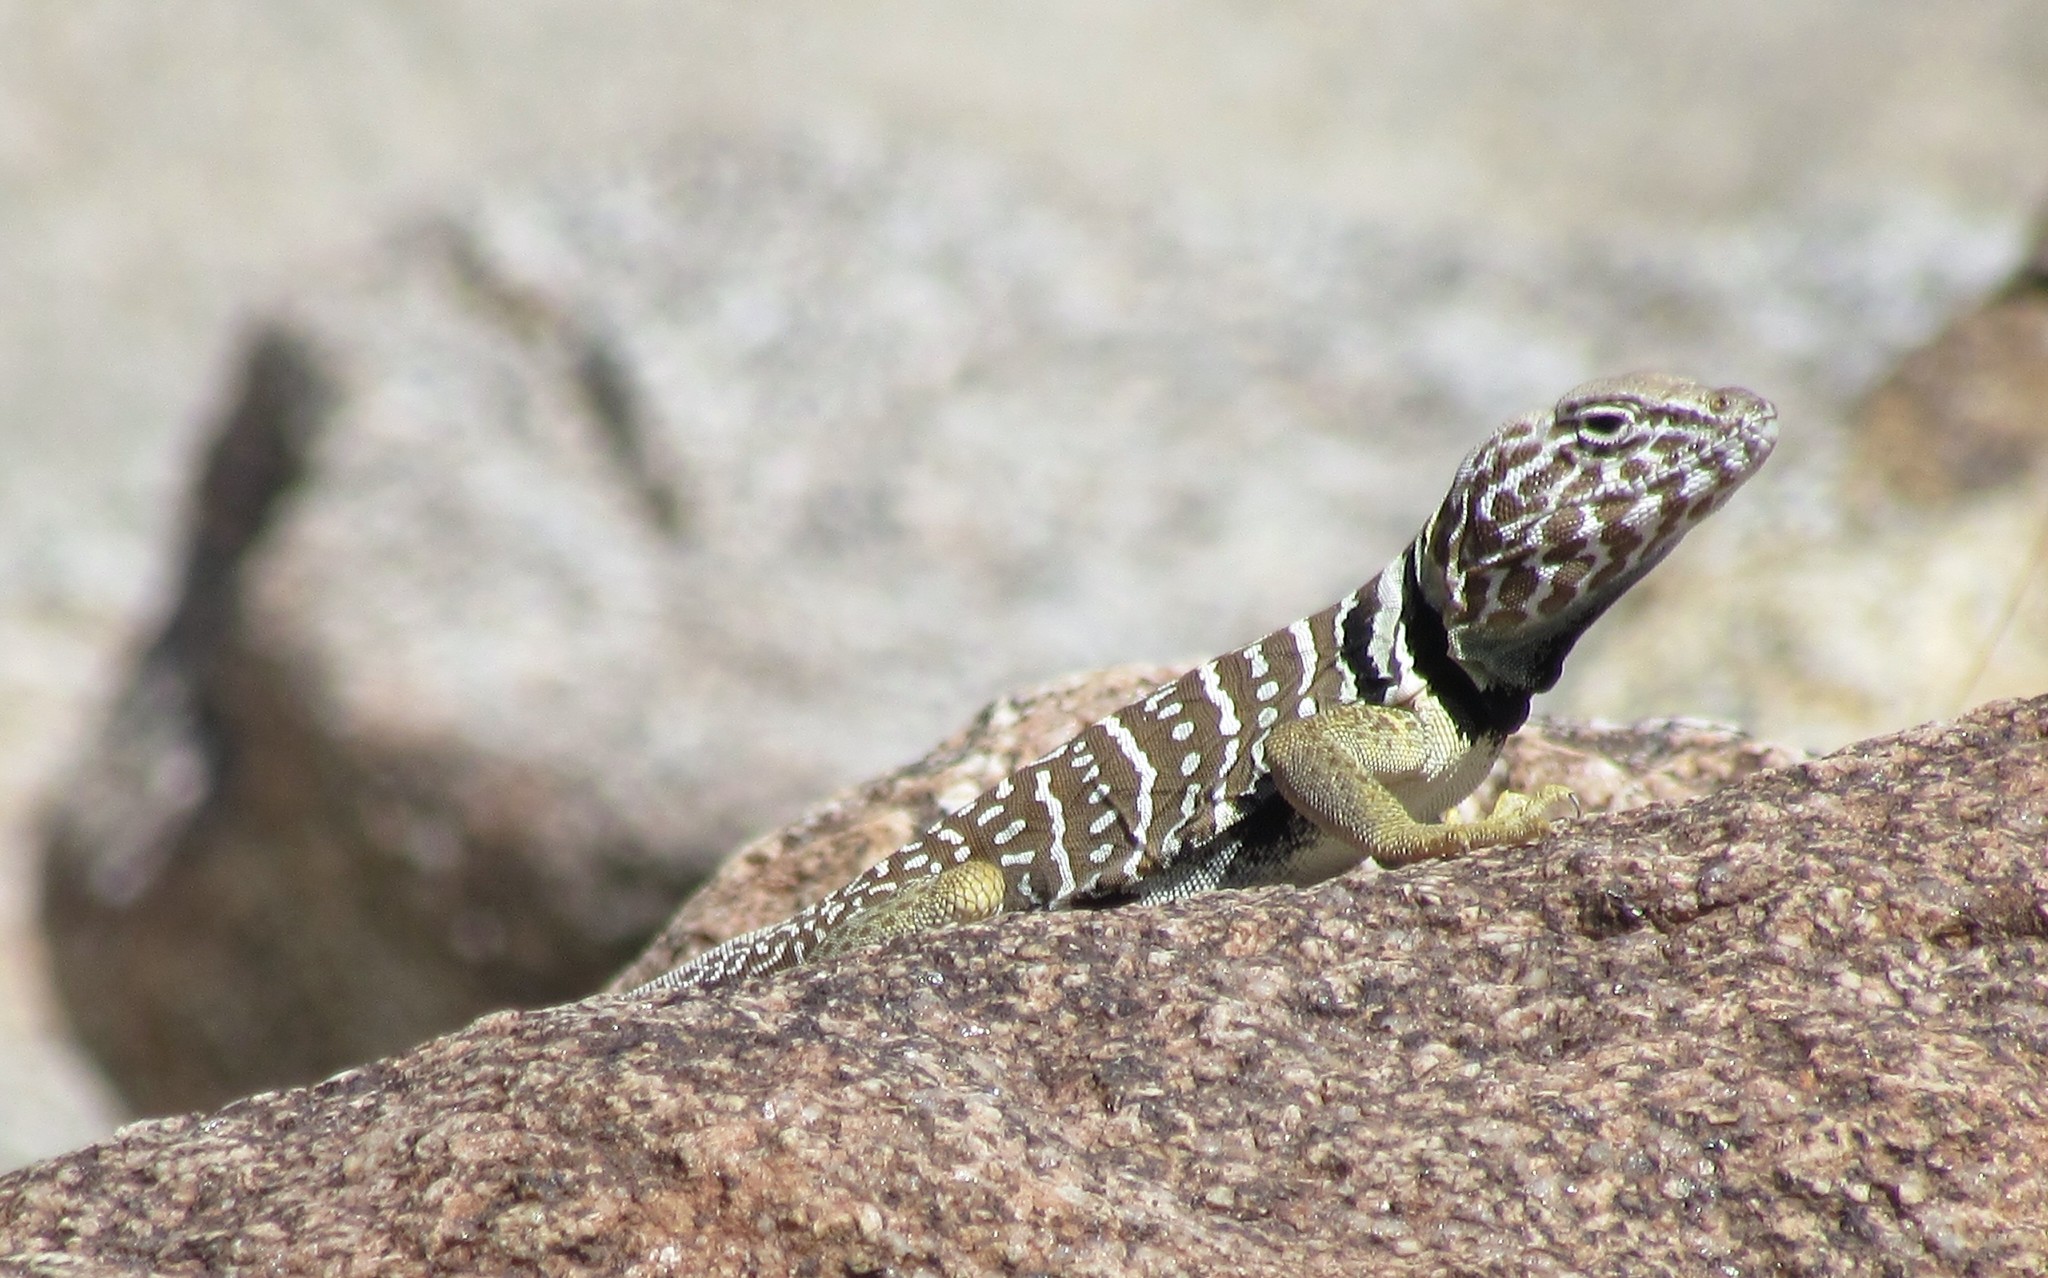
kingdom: Animalia
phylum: Chordata
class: Squamata
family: Crotaphytidae
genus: Crotaphytus
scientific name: Crotaphytus vestigium
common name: Baja black-collared lizard
